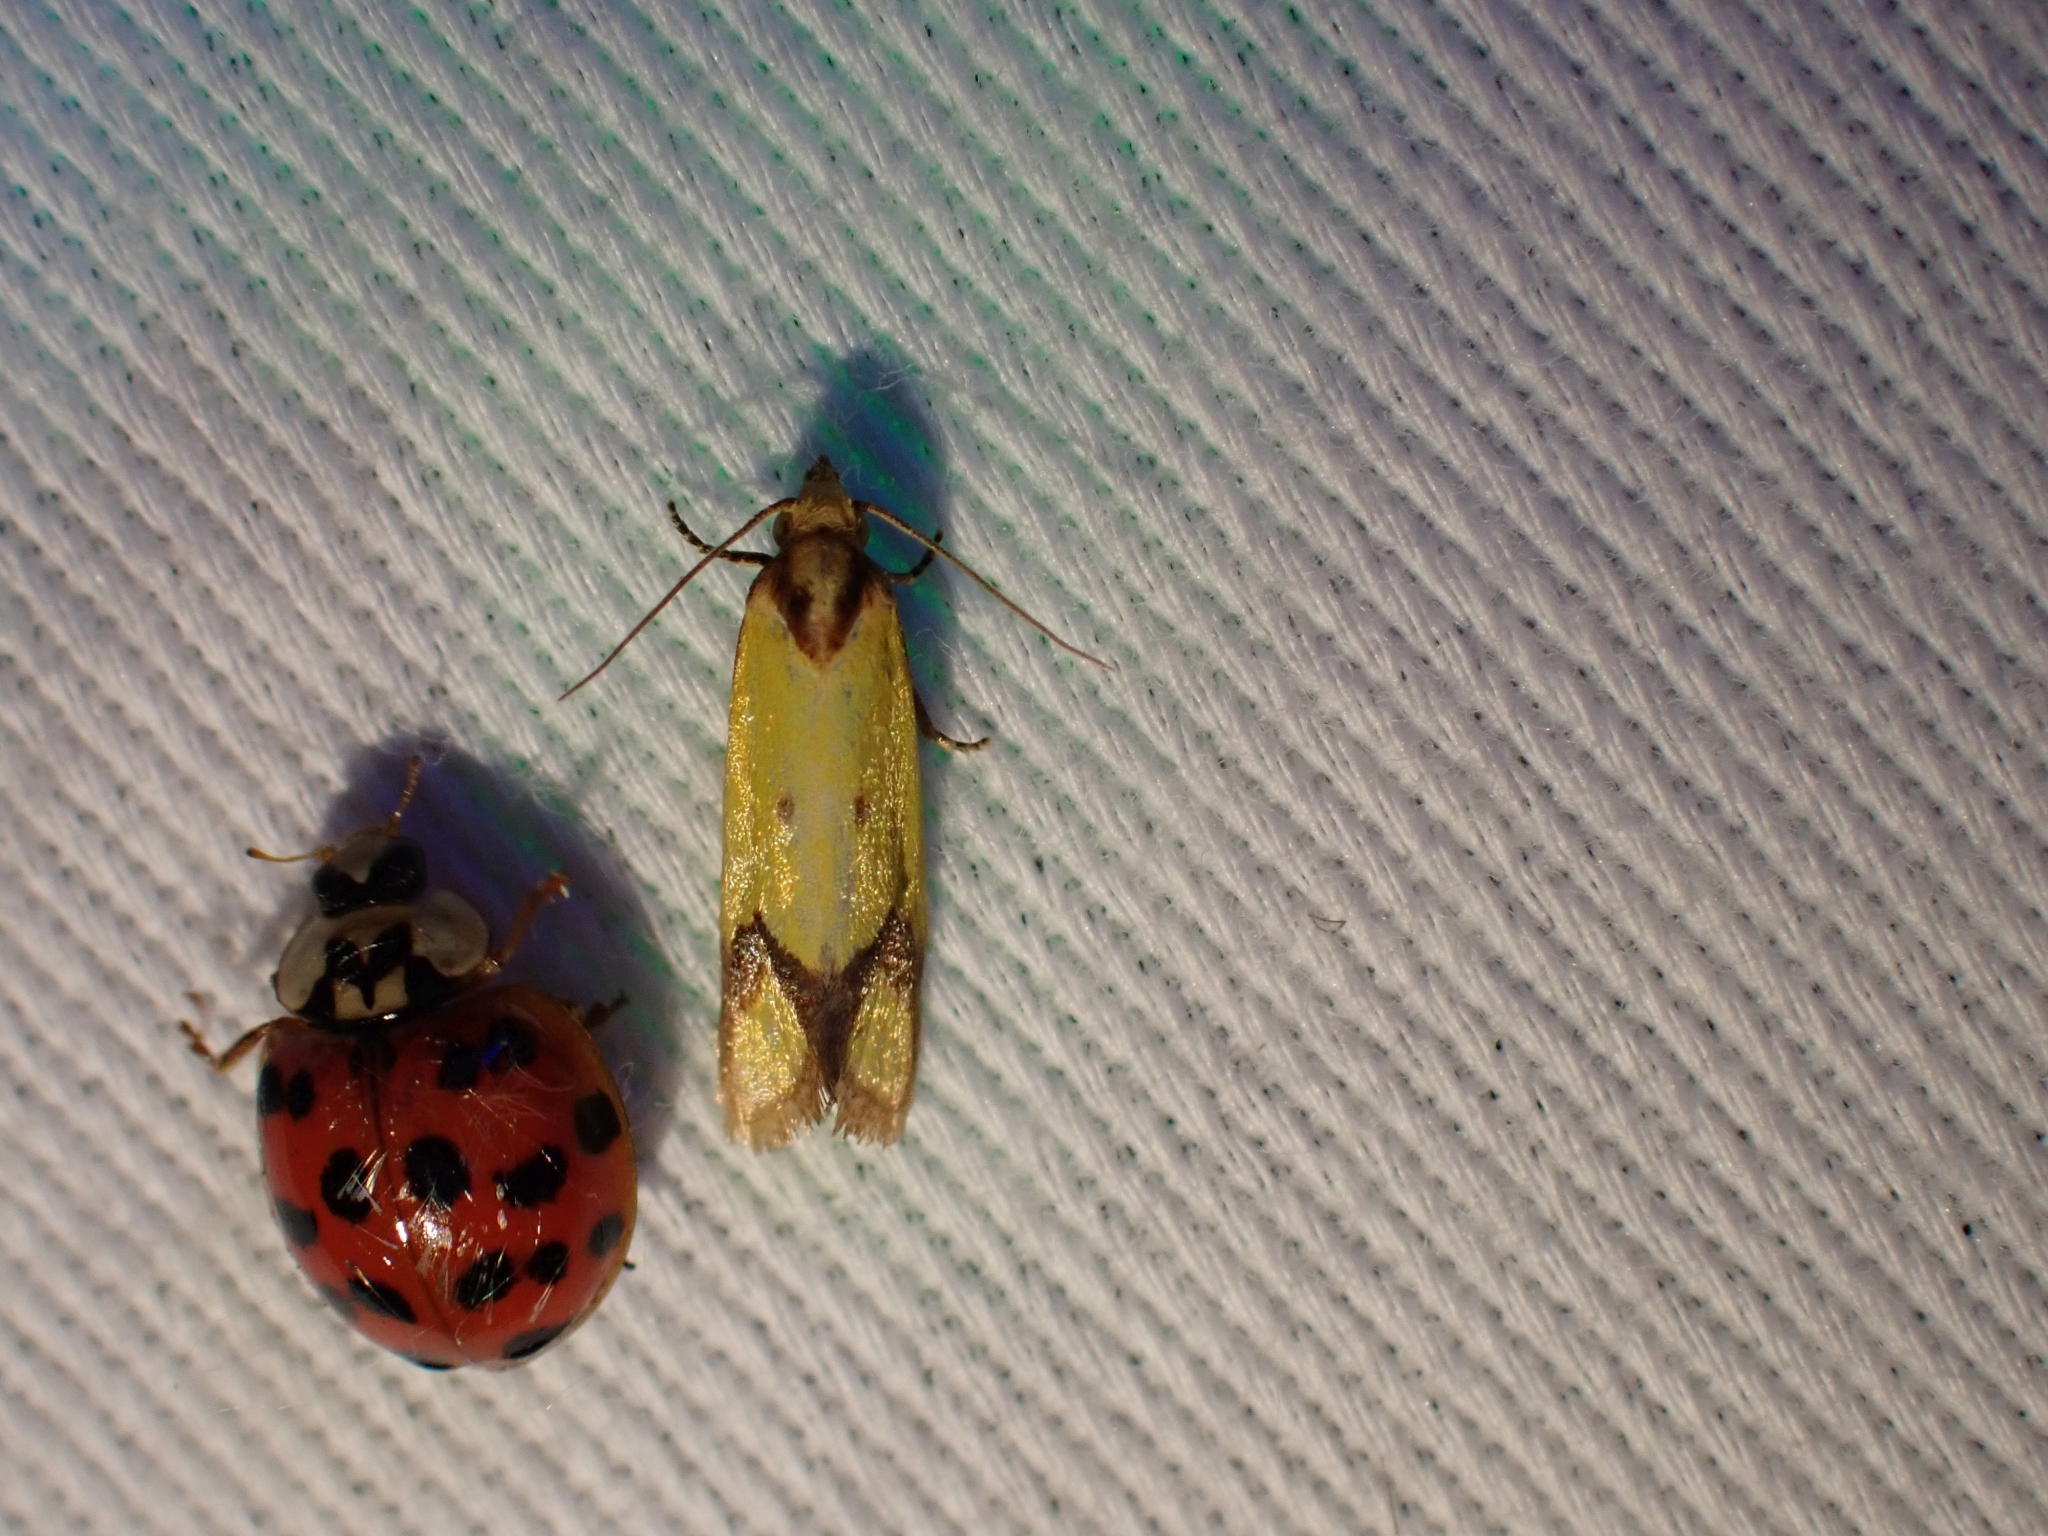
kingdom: Animalia
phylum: Arthropoda
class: Insecta
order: Lepidoptera
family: Tortricidae
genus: Agapeta
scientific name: Agapeta zoegana
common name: Sulfur knapweed root moth
